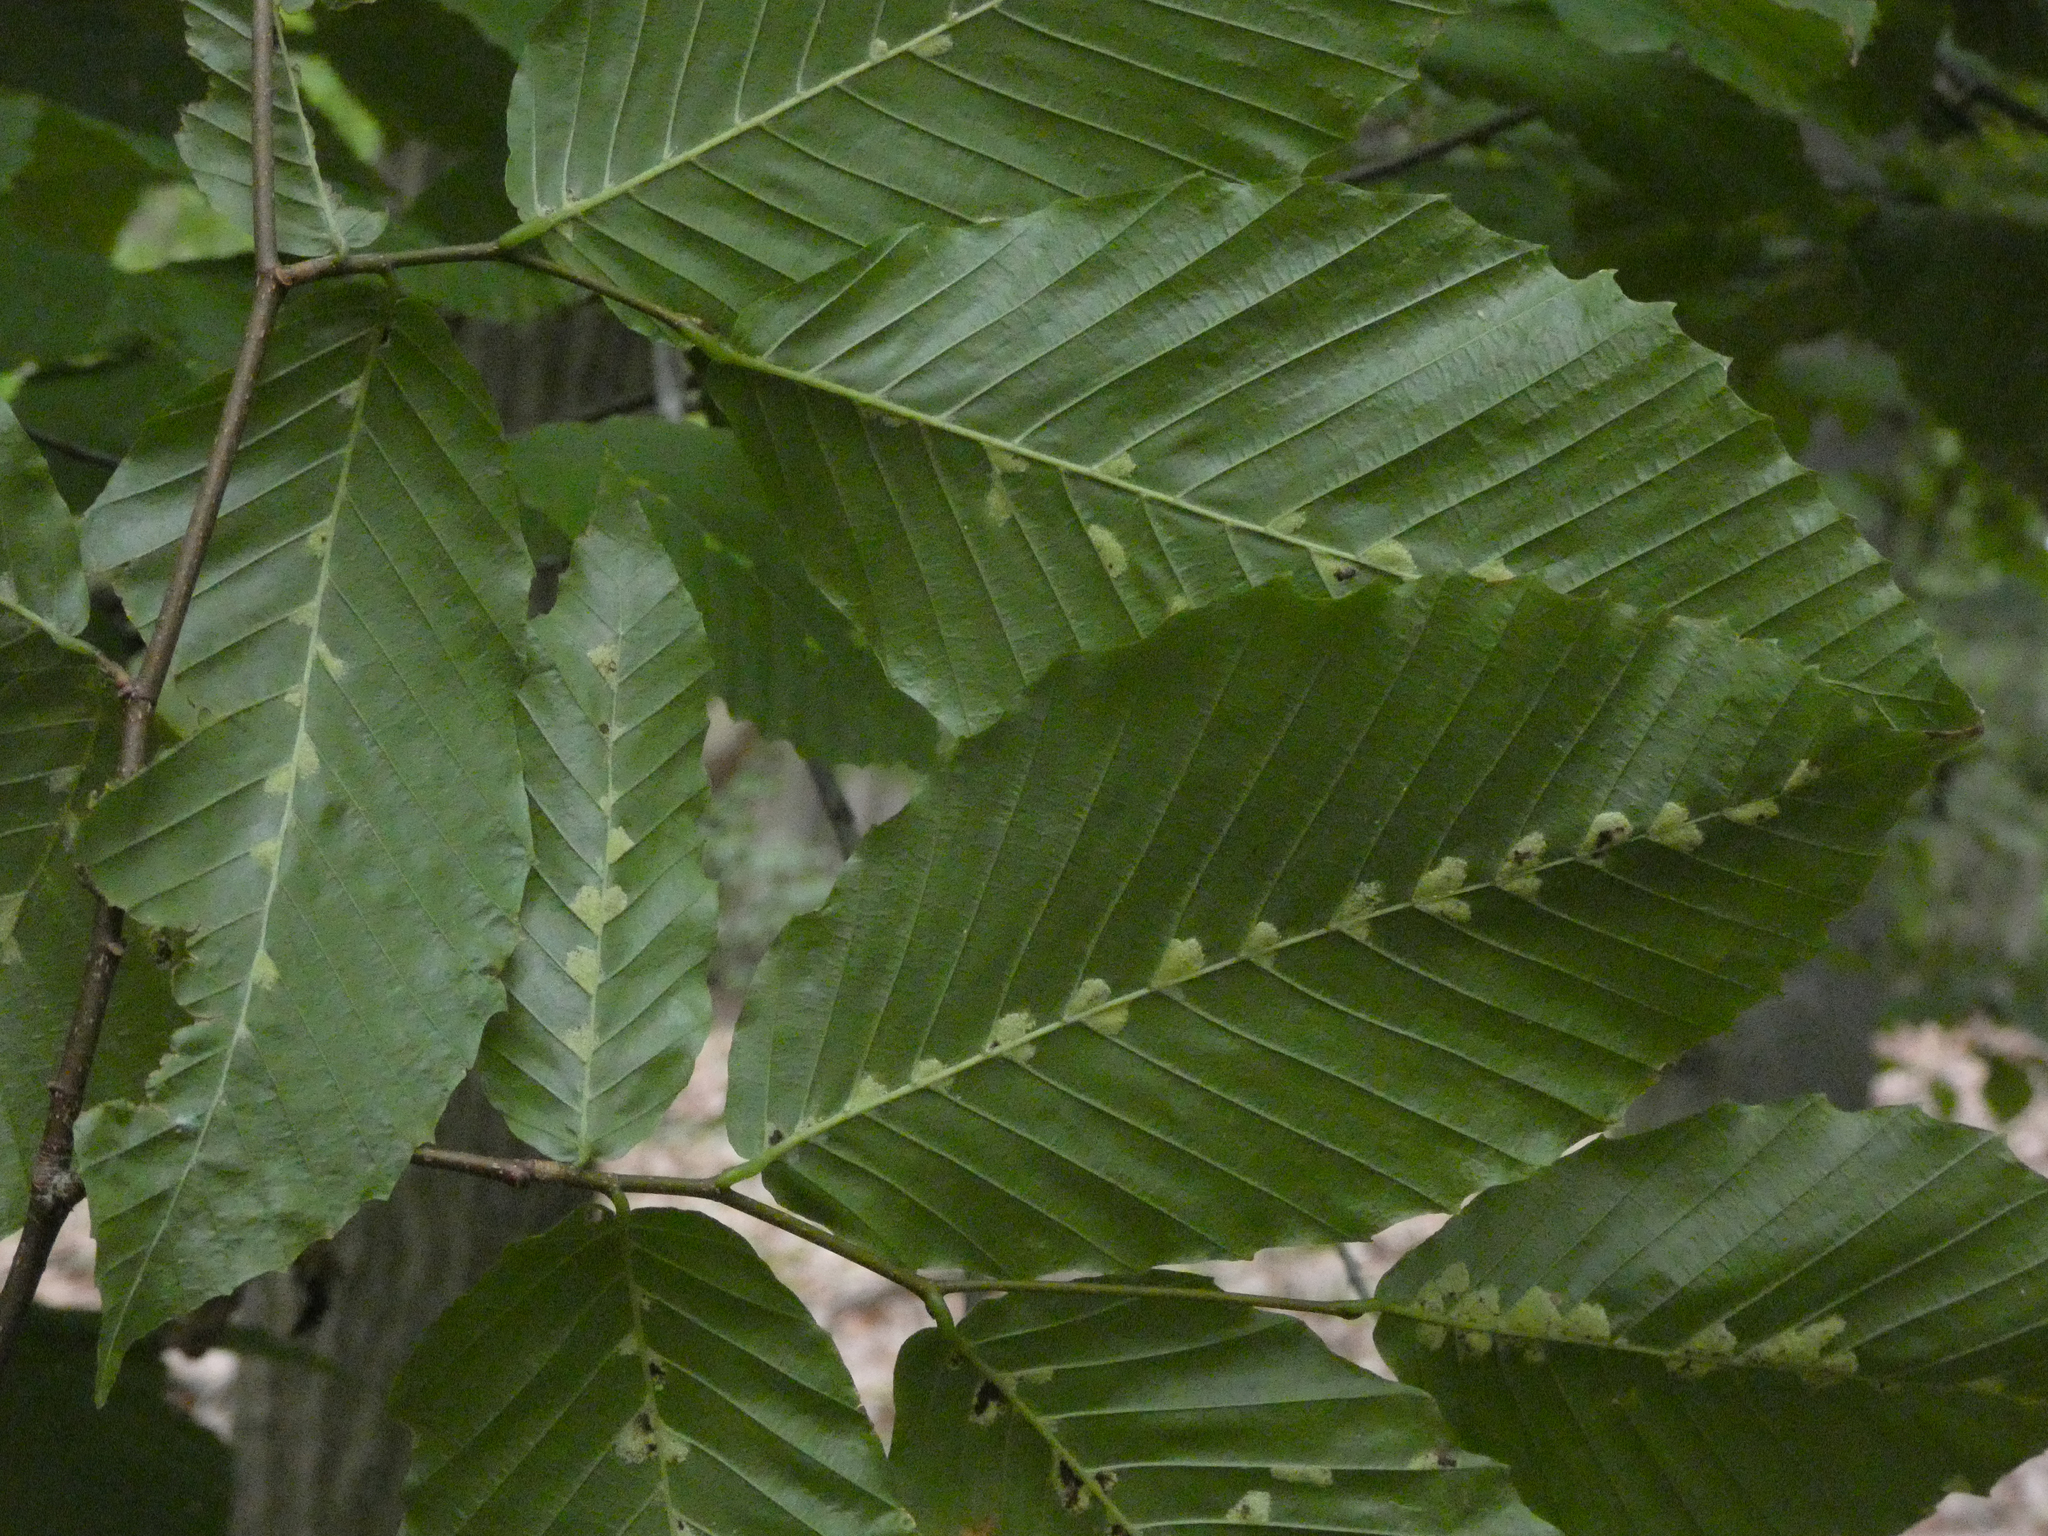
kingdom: Animalia
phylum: Arthropoda
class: Arachnida
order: Trombidiformes
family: Eriophyidae
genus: Acalitus
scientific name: Acalitus
